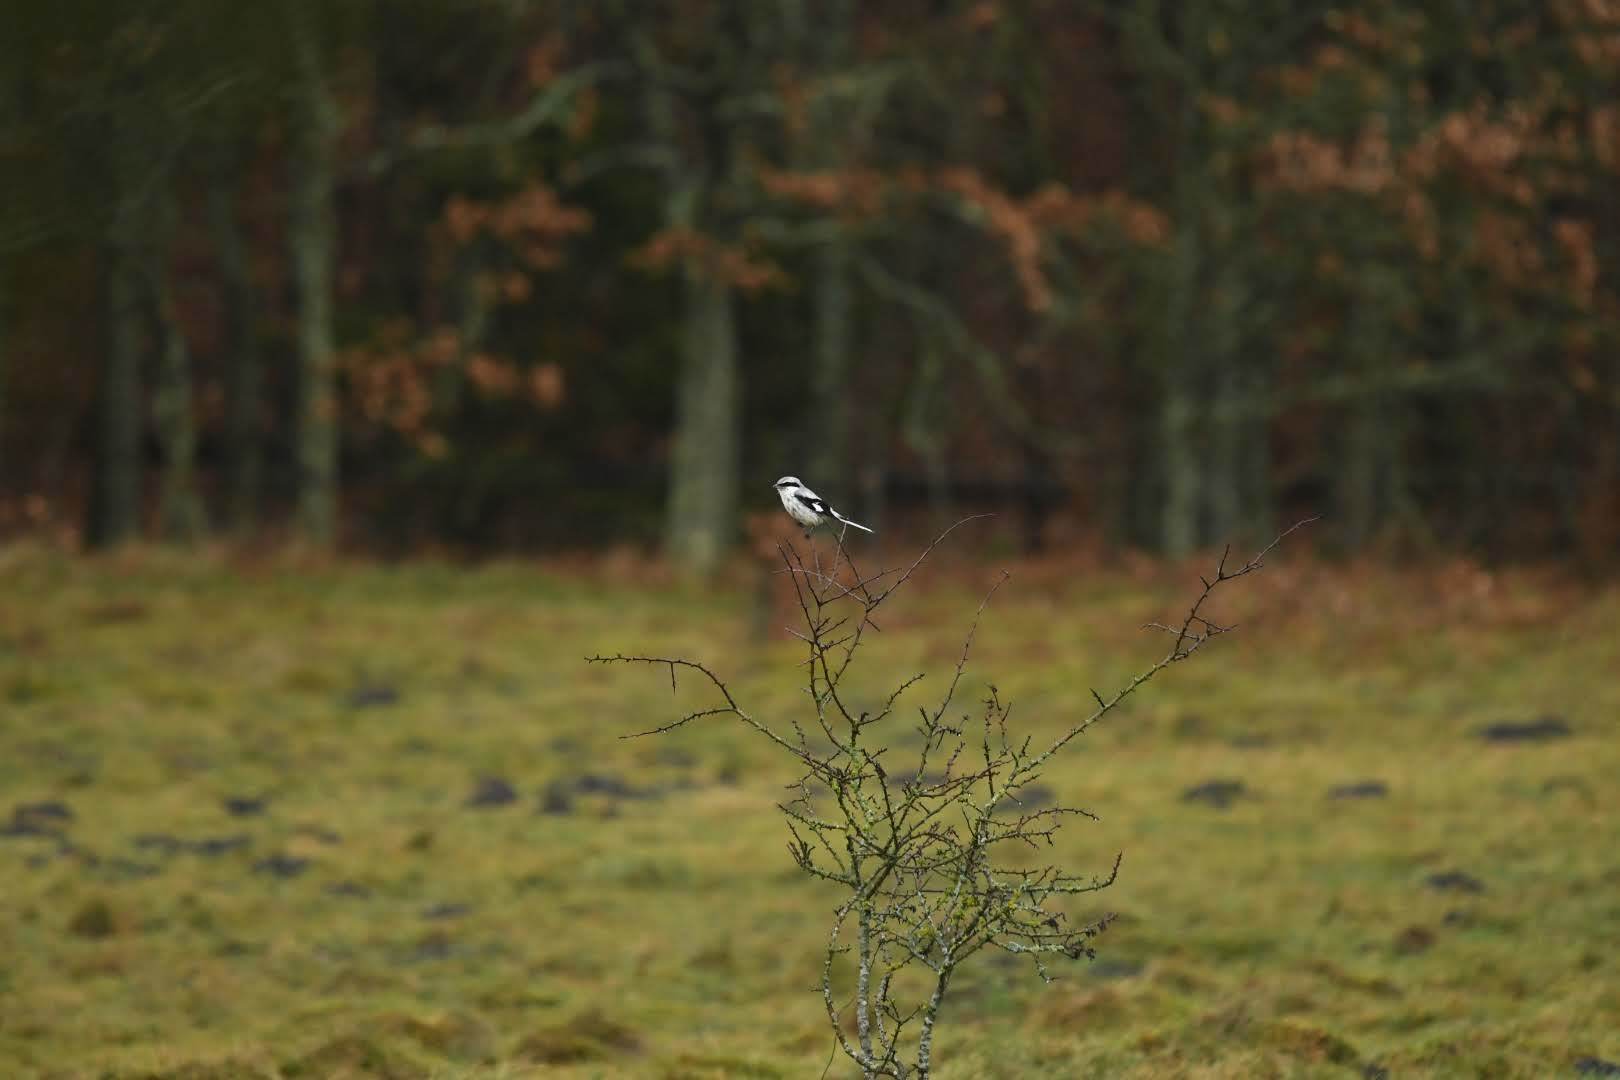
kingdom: Animalia
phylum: Chordata
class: Aves
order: Passeriformes
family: Laniidae
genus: Lanius
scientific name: Lanius excubitor
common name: Great grey shrike
